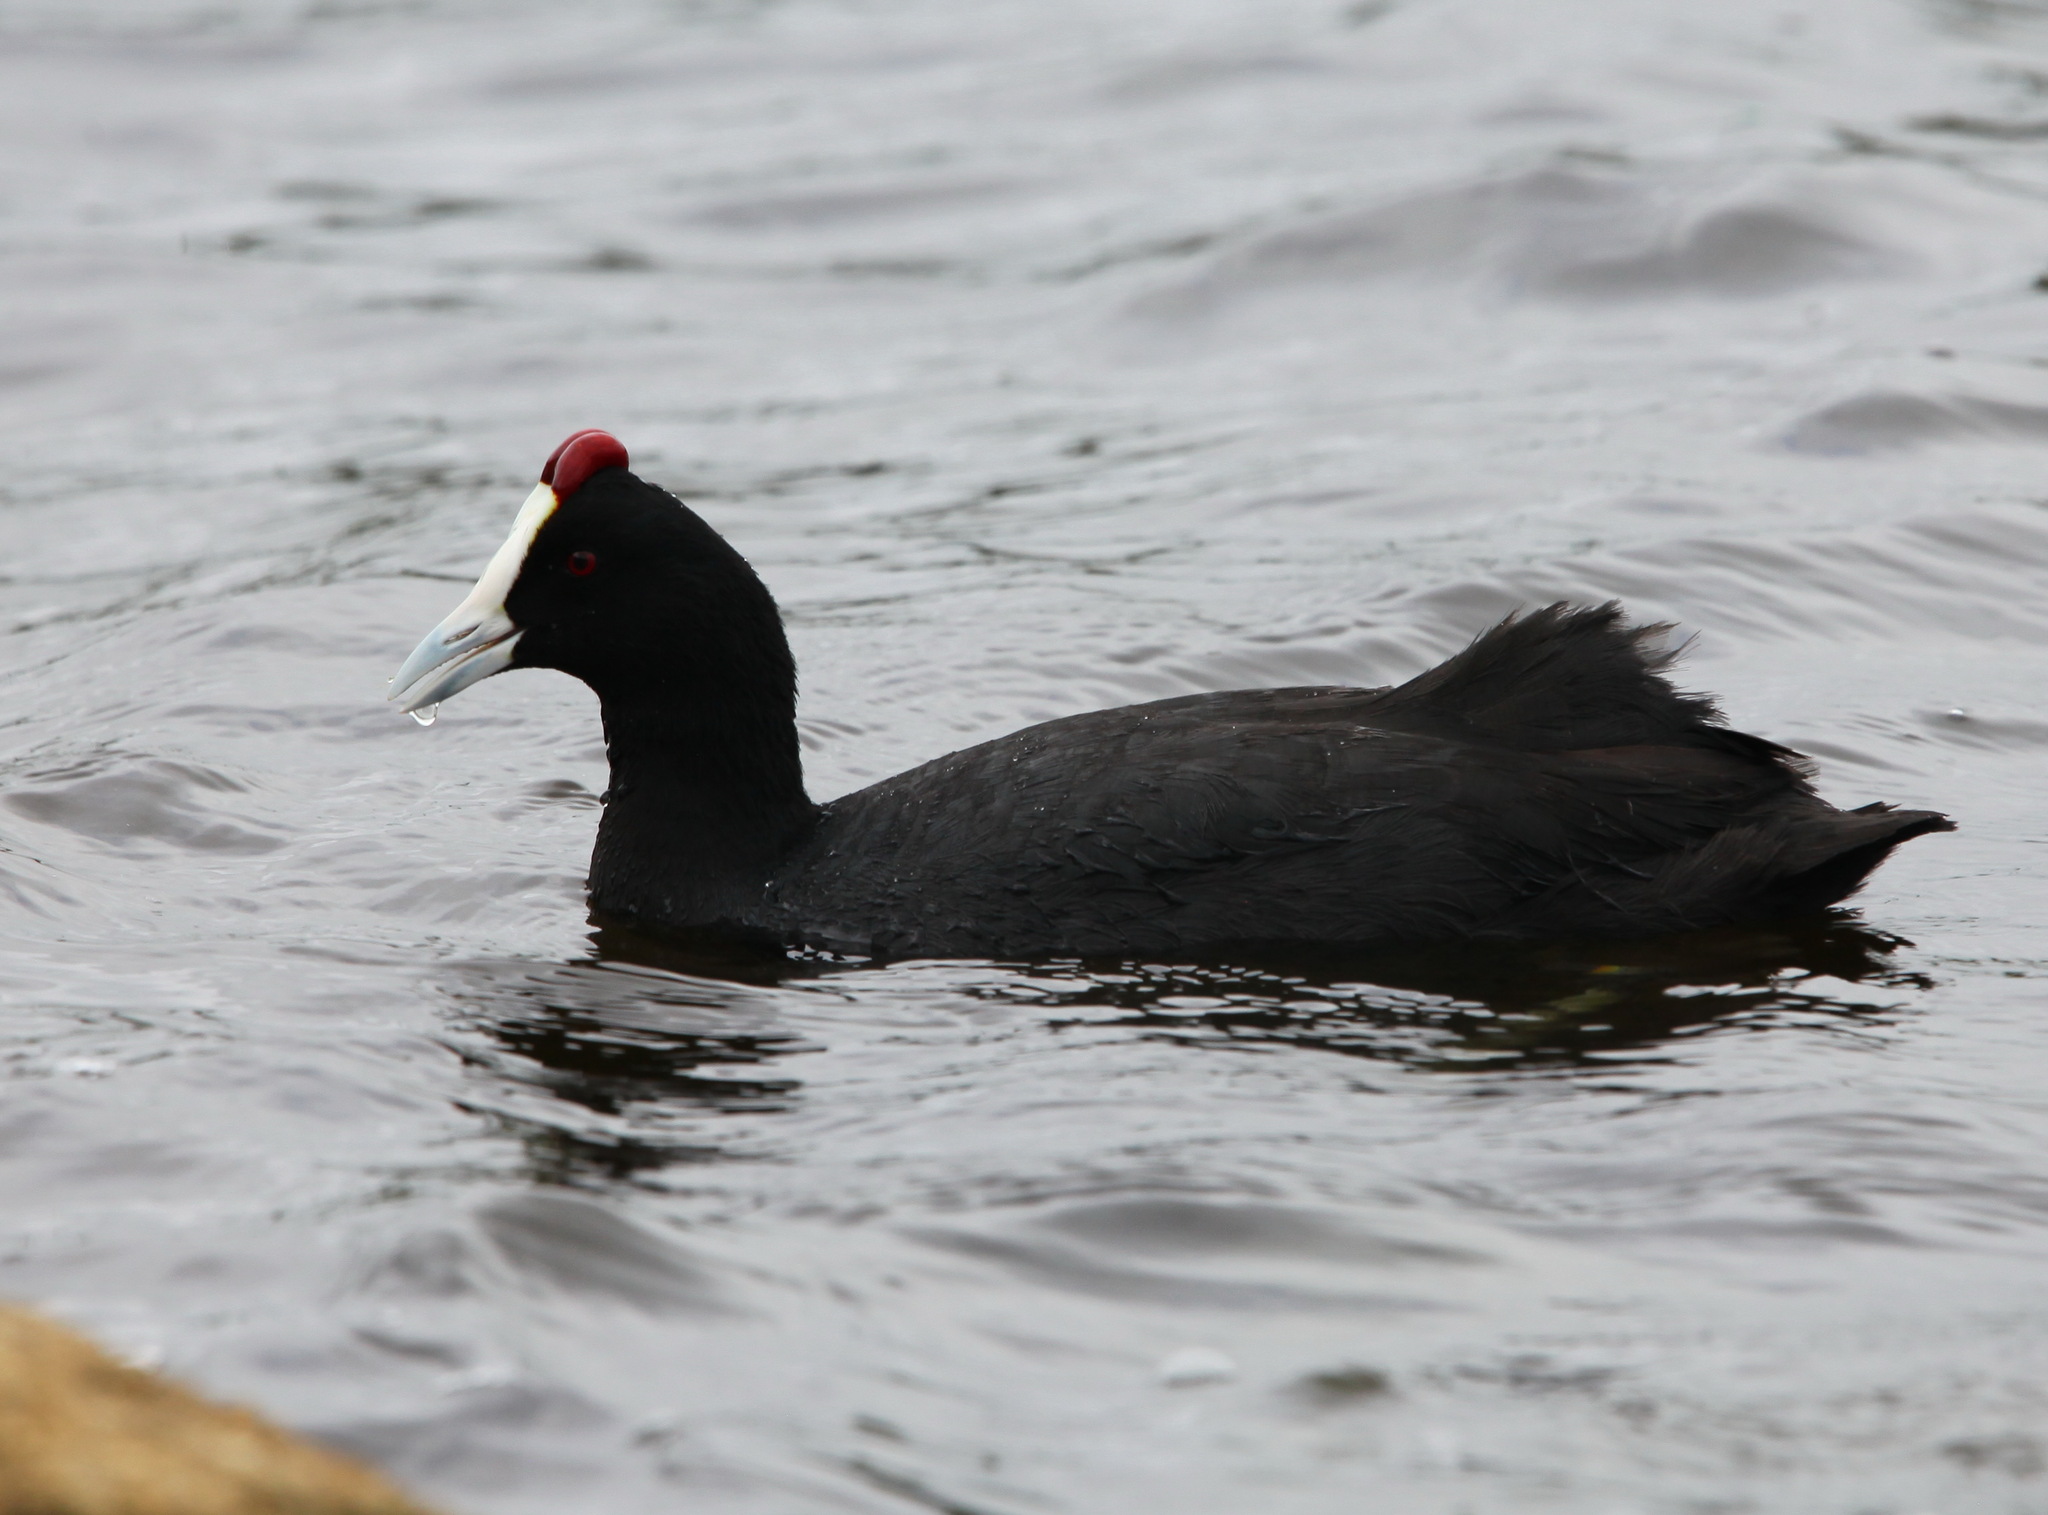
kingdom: Animalia
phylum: Chordata
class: Aves
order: Gruiformes
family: Rallidae
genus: Fulica
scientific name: Fulica cristata
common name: Red-knobbed coot
